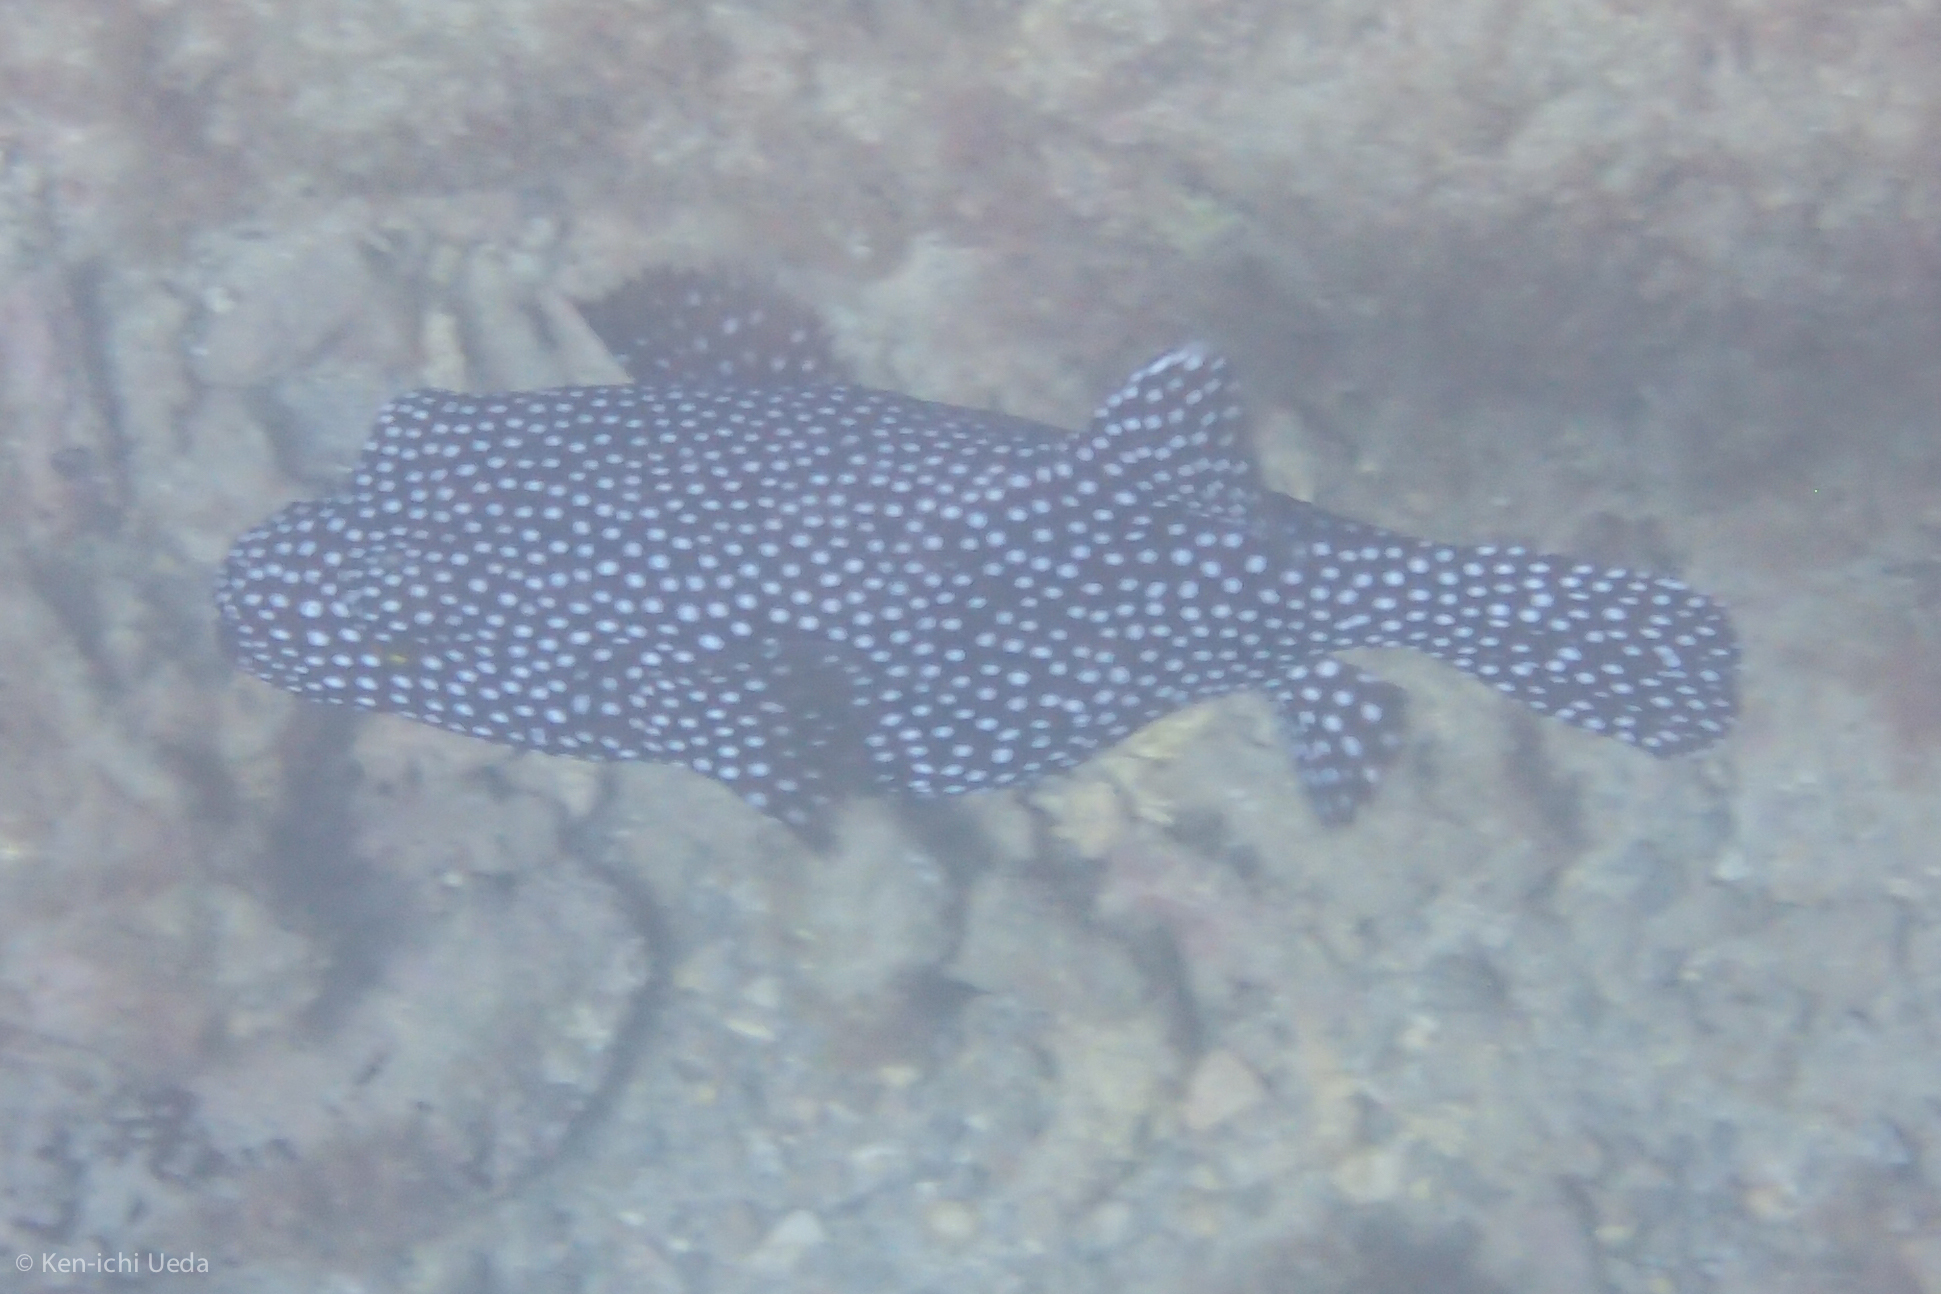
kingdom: Animalia
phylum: Chordata
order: Tetraodontiformes
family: Tetraodontidae
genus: Arothron
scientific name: Arothron meleagris
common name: Guinea-fowl pufferfish
